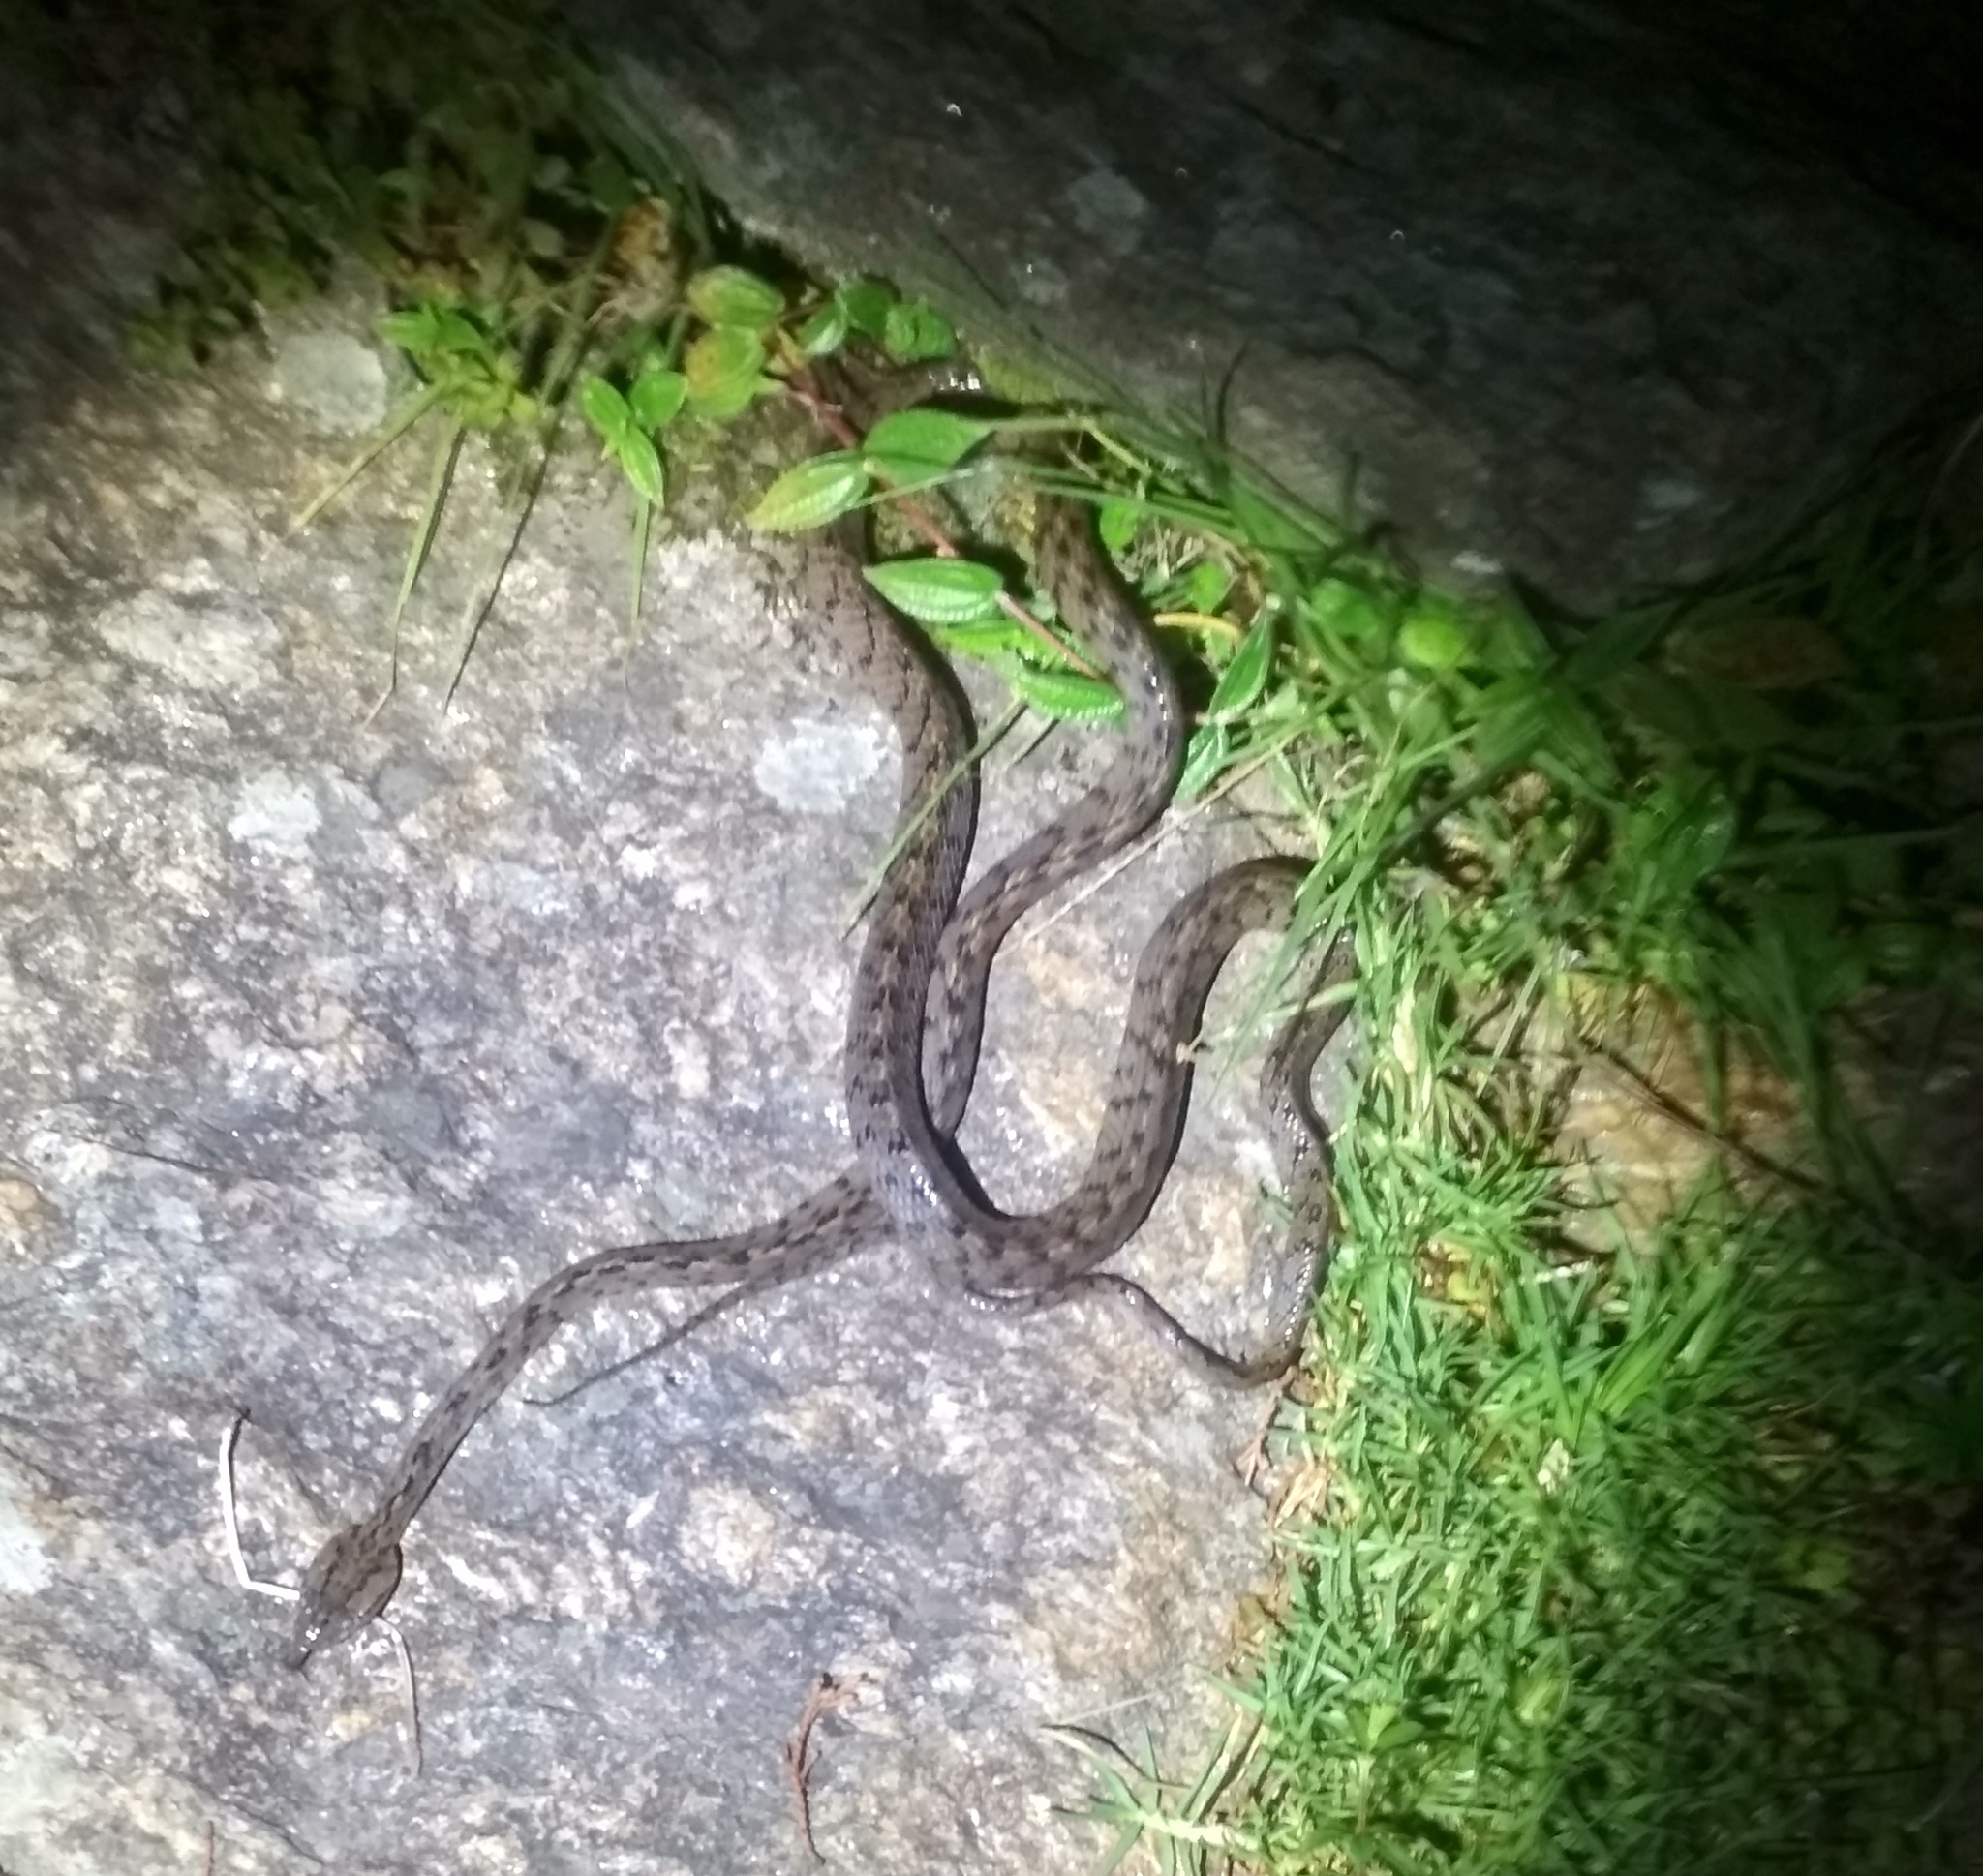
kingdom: Animalia
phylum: Chordata
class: Squamata
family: Colubridae
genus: Boiga
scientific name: Boiga multifasciata
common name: Many-banded tree snake
